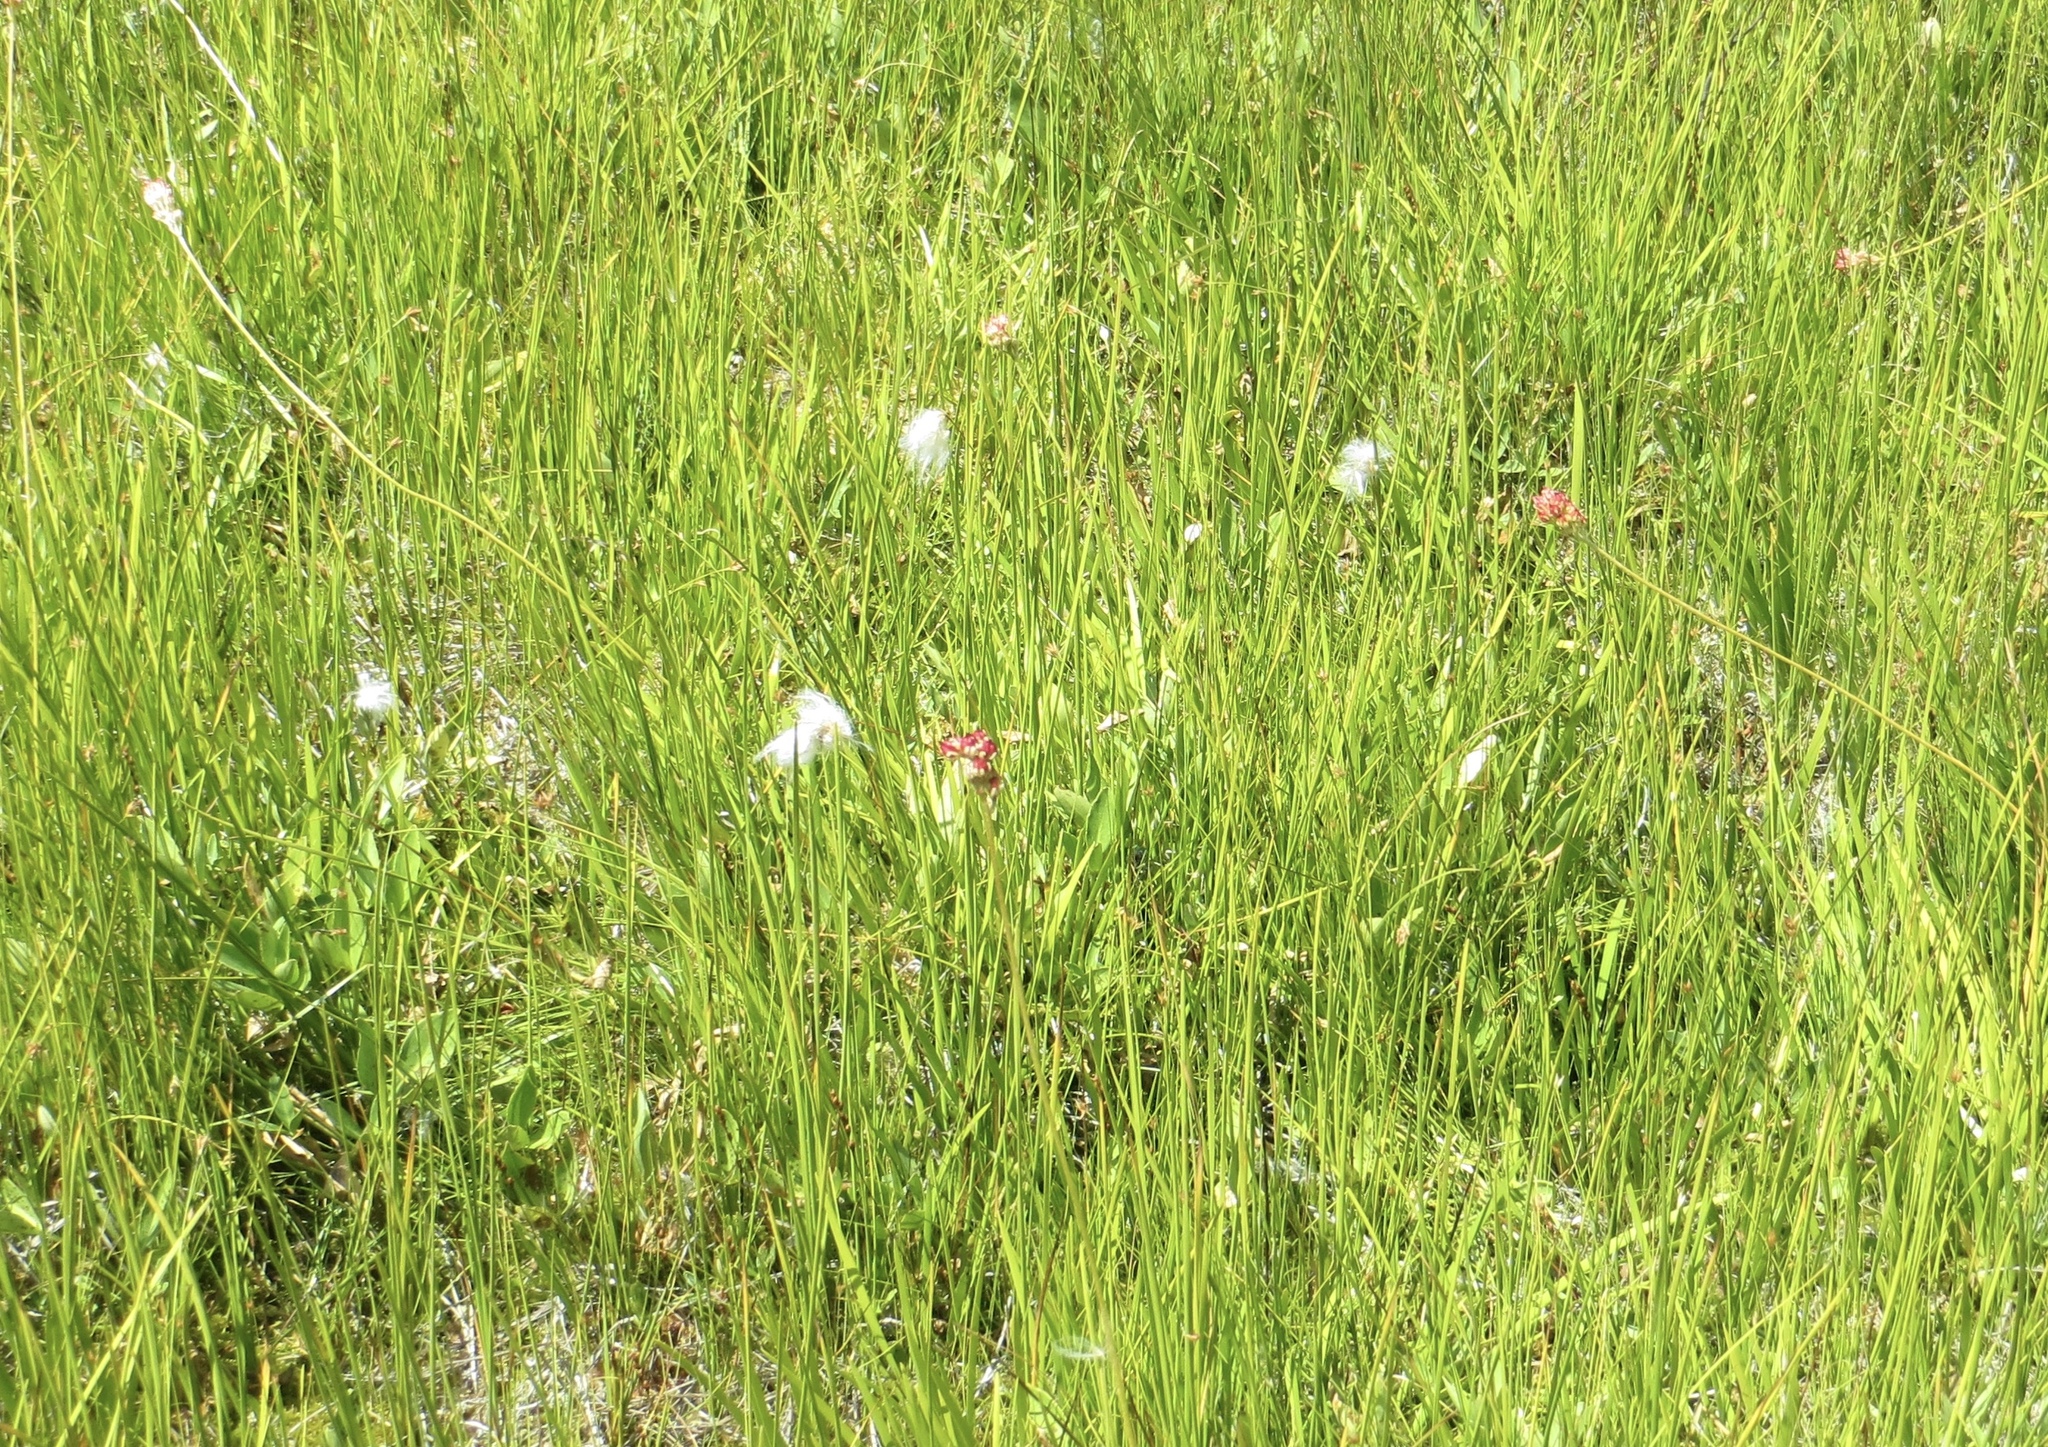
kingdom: Plantae
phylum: Tracheophyta
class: Liliopsida
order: Poales
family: Cyperaceae
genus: Eriophorum
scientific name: Eriophorum gracile
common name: Slender cottongrass
